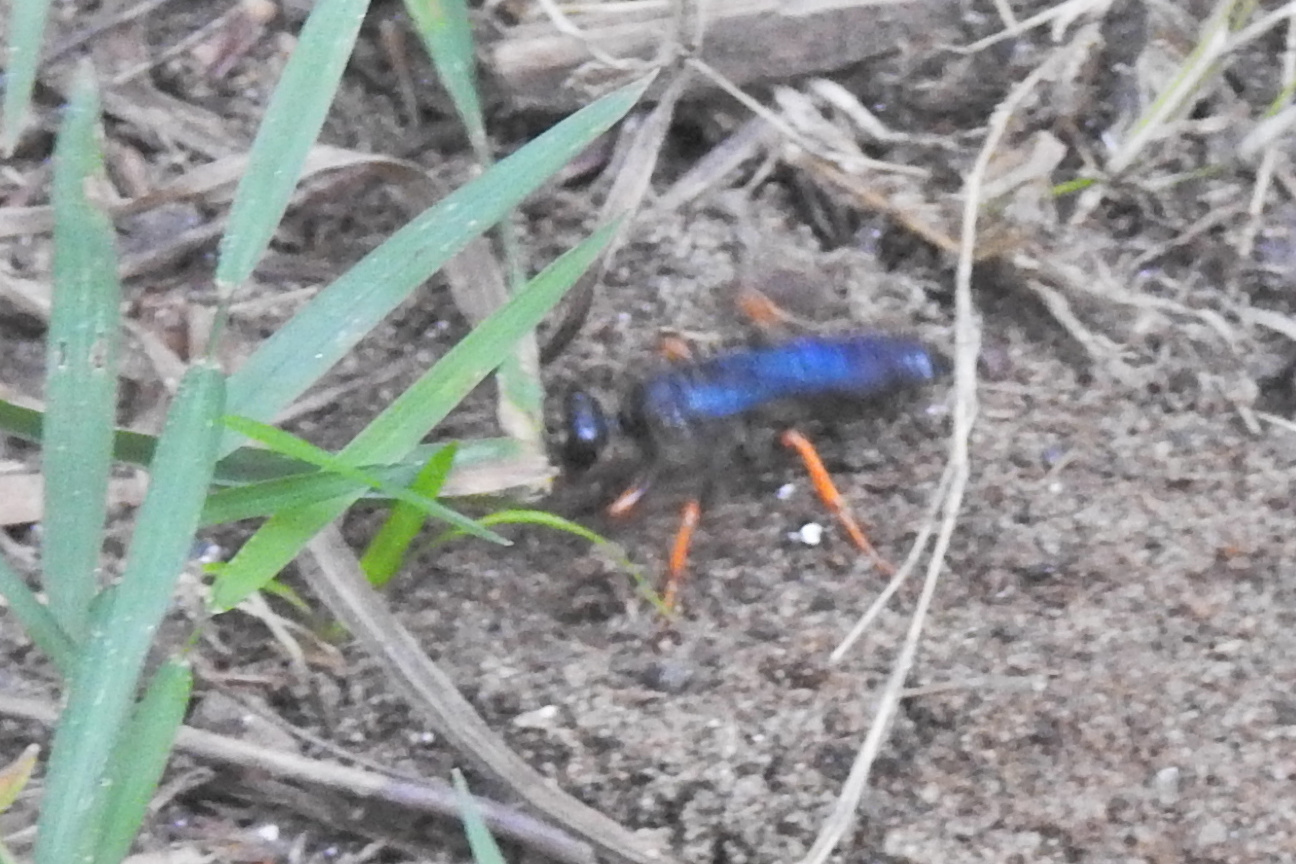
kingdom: Animalia
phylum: Arthropoda
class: Insecta
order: Hymenoptera
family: Sphecidae
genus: Sphex
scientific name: Sphex nudus
